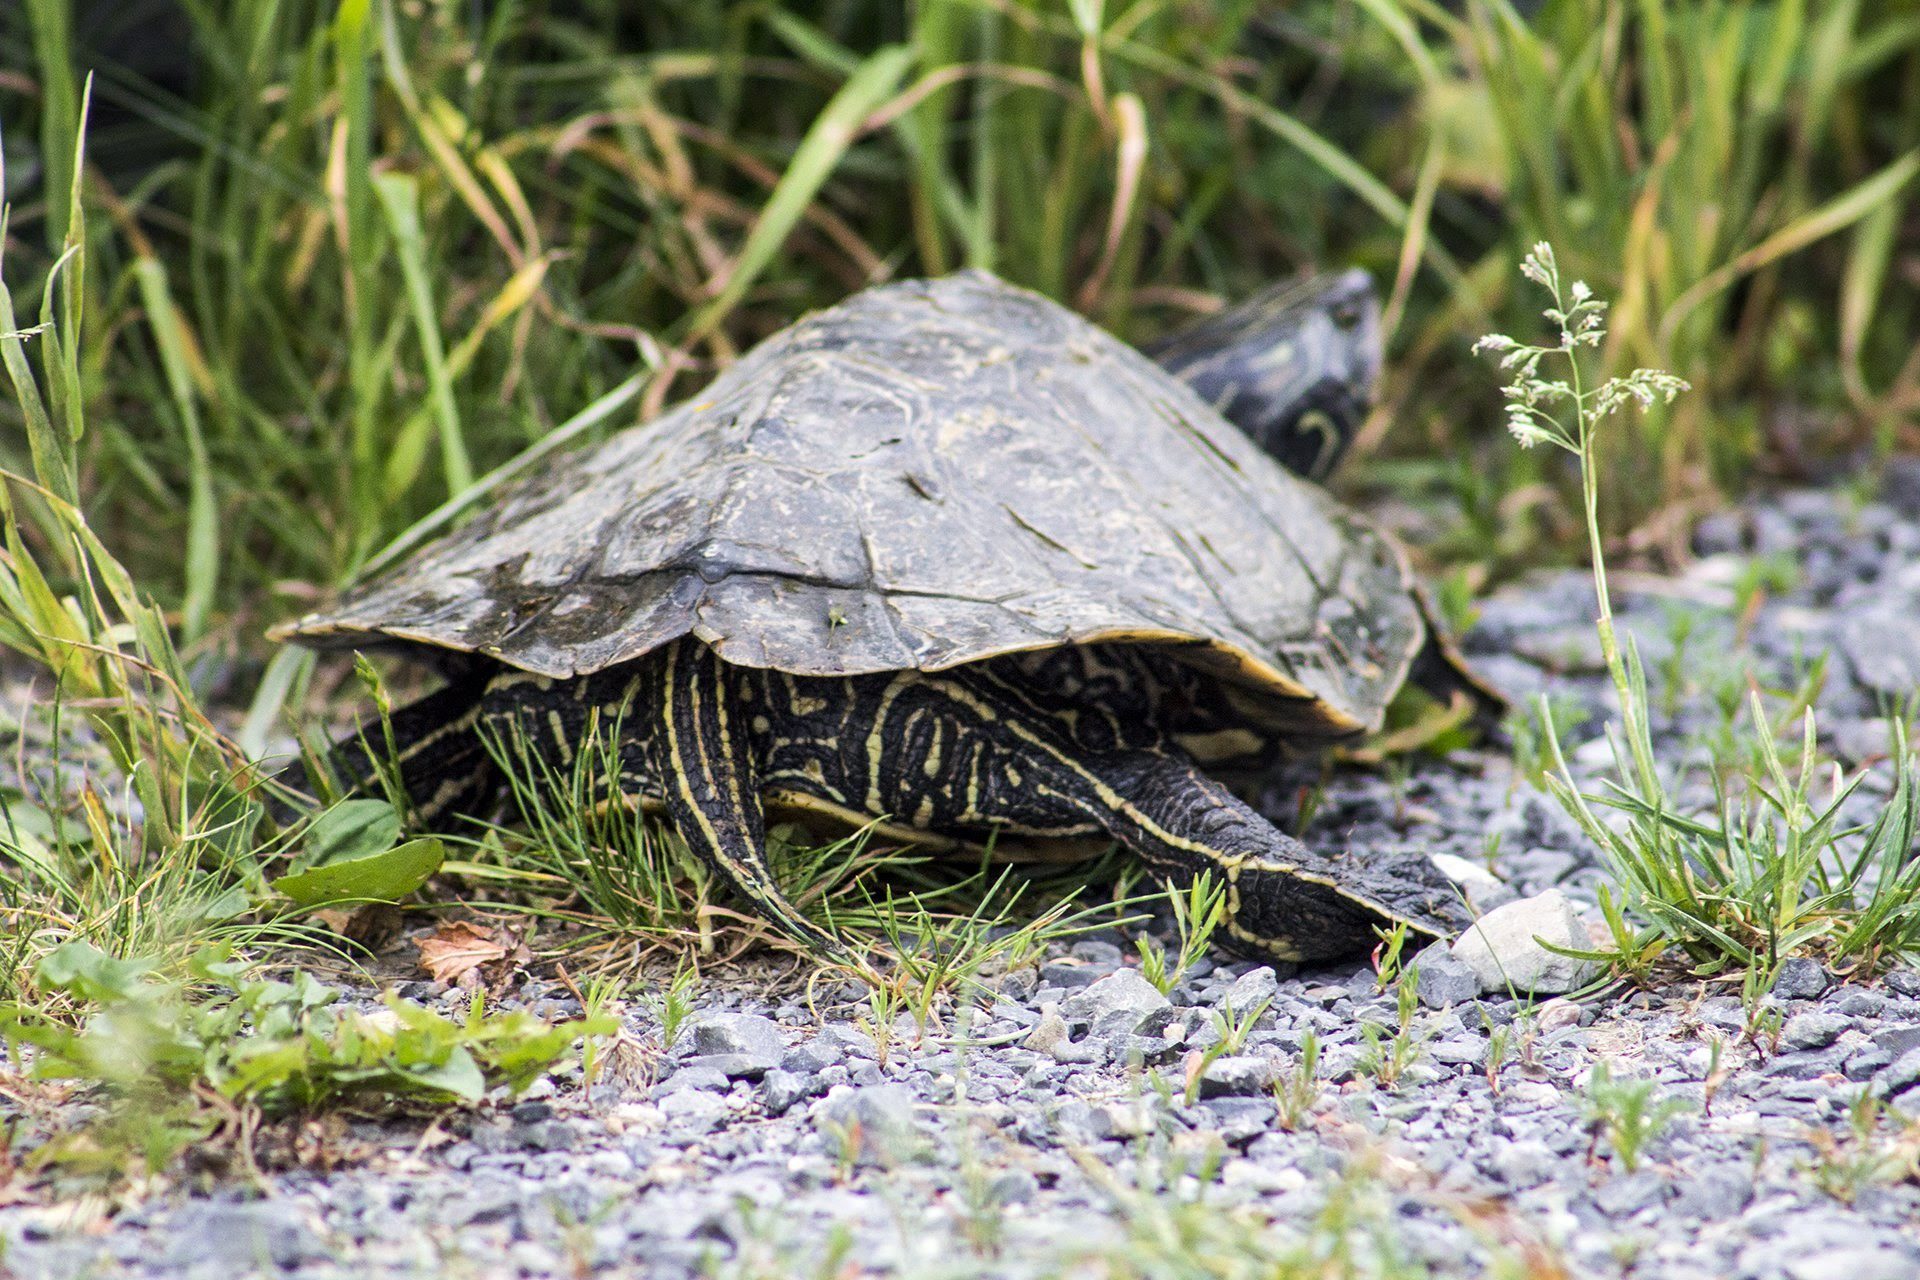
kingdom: Animalia
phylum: Chordata
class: Testudines
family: Emydidae
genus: Graptemys
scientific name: Graptemys geographica
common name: Common map turtle
